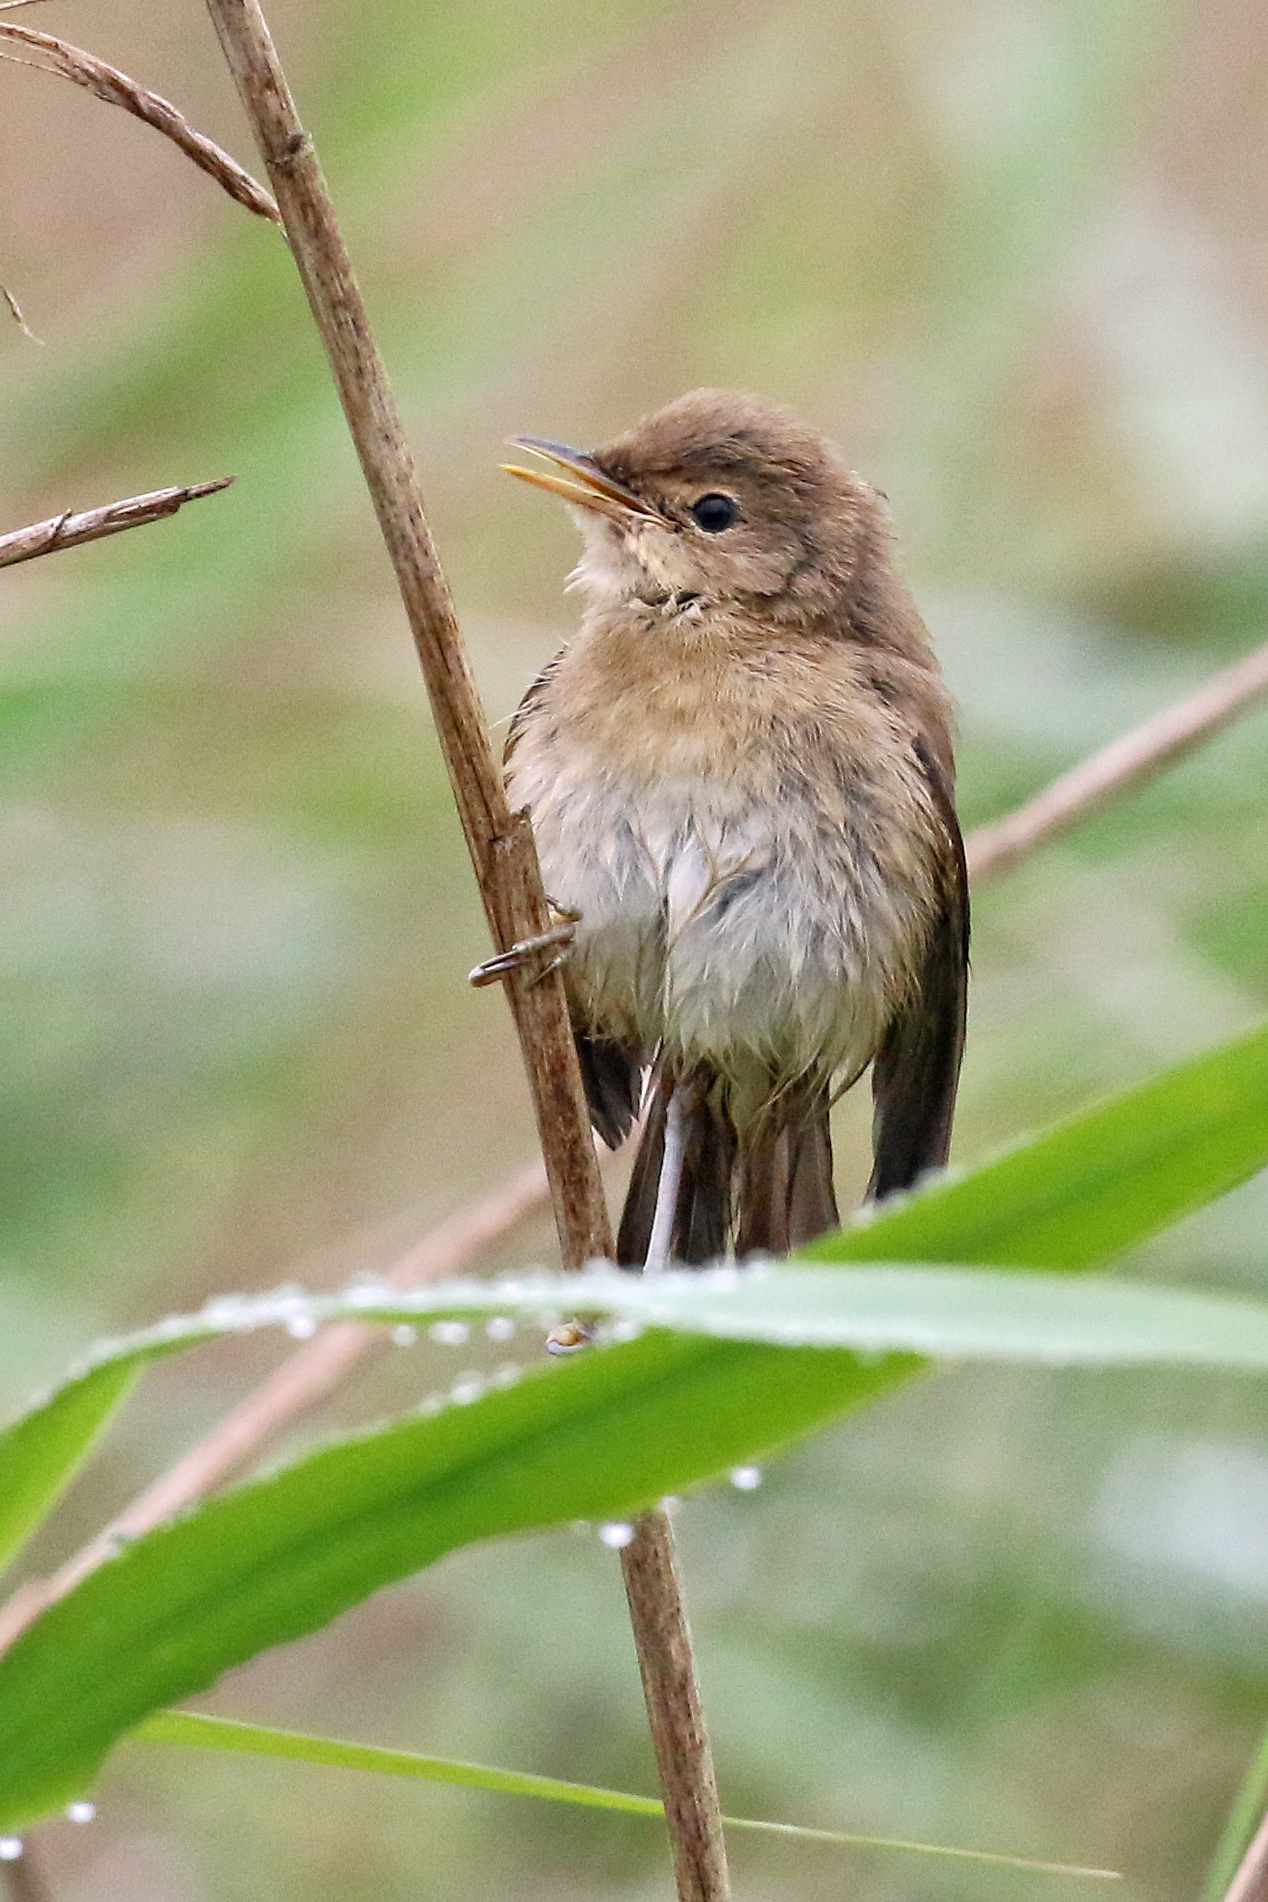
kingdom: Animalia
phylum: Chordata
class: Aves
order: Passeriformes
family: Acrocephalidae
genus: Acrocephalus
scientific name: Acrocephalus scirpaceus
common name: Eurasian reed warbler
